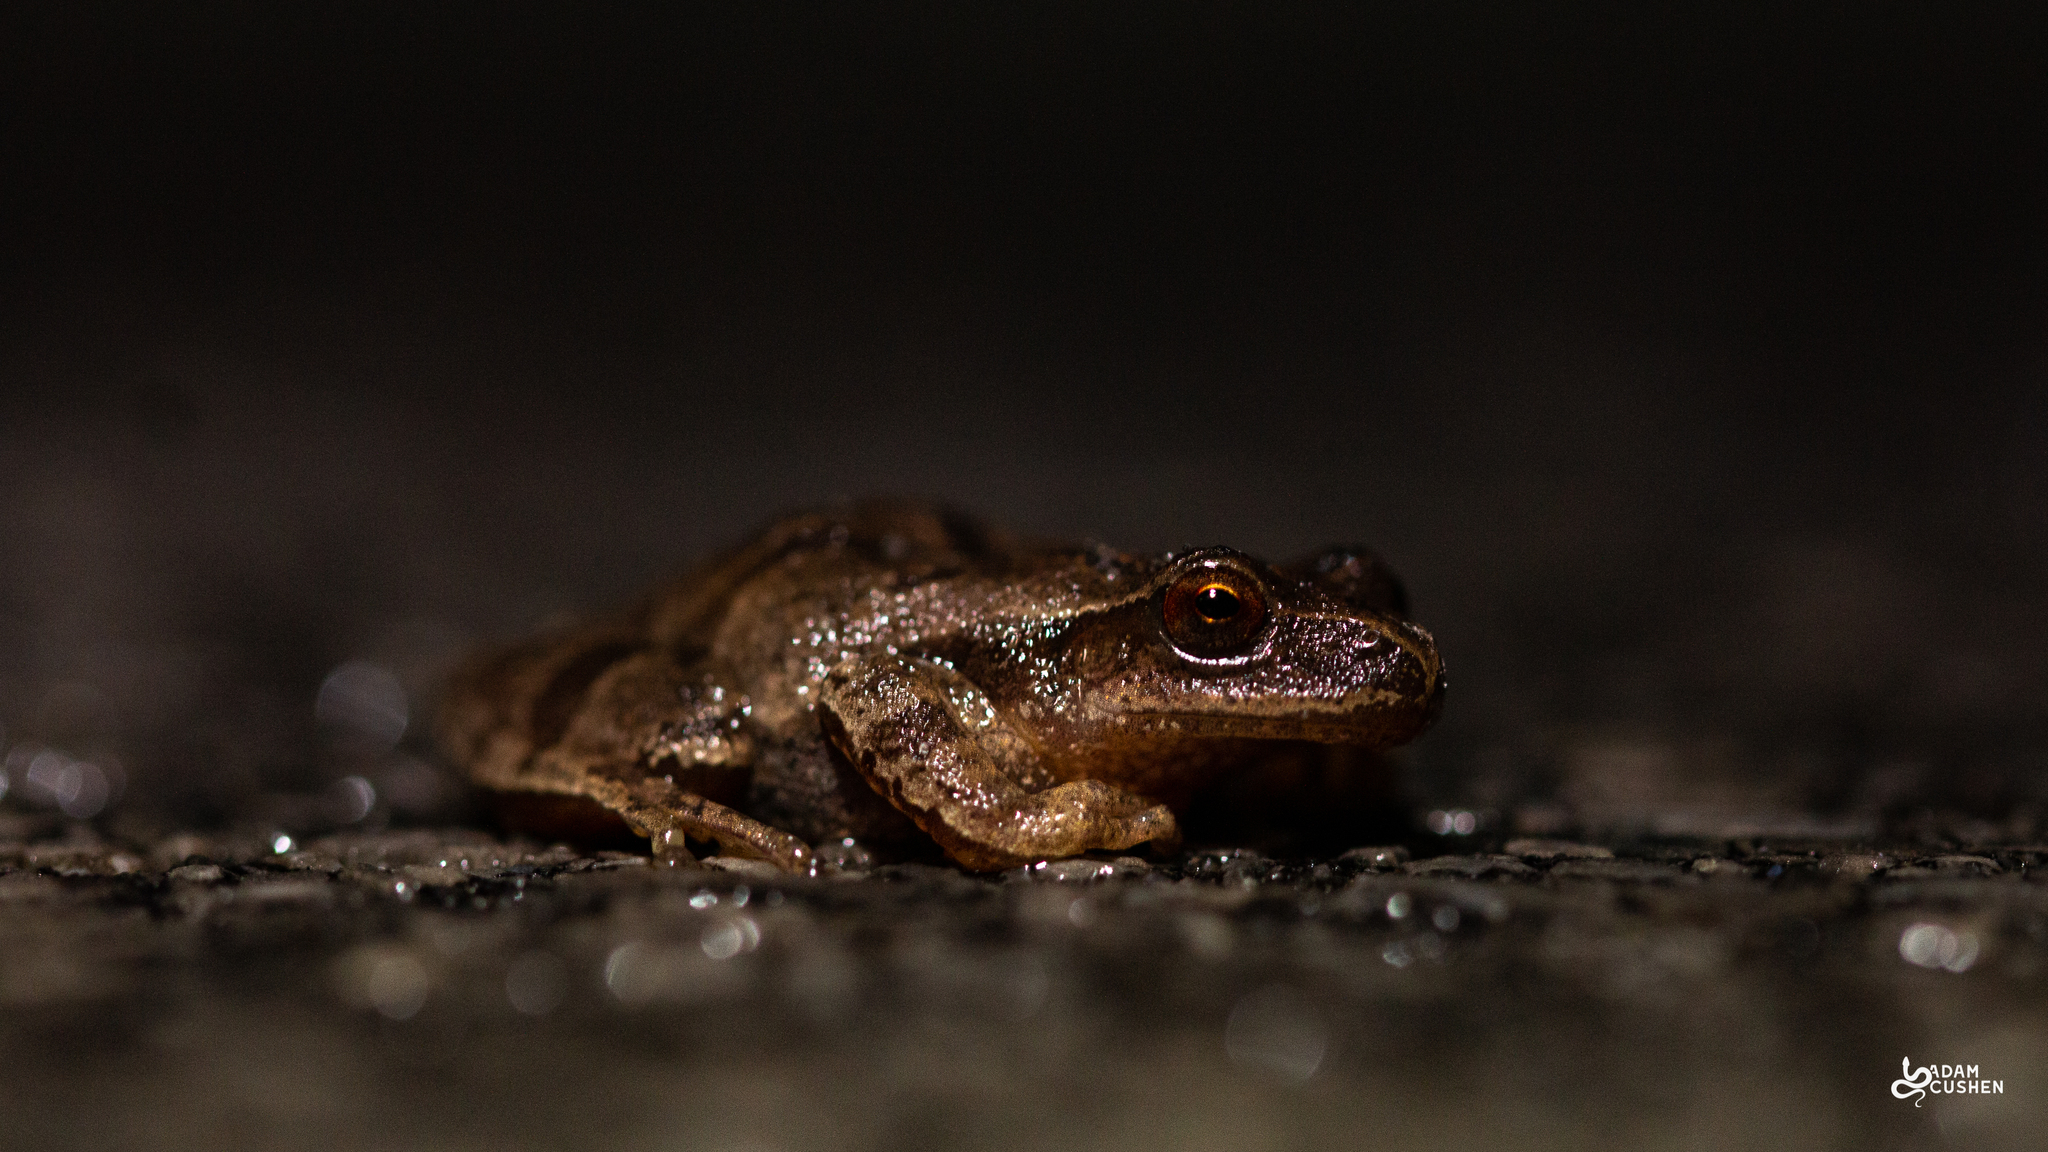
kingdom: Animalia
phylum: Chordata
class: Amphibia
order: Anura
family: Hylidae
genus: Pseudacris
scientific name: Pseudacris crucifer
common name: Spring peeper
